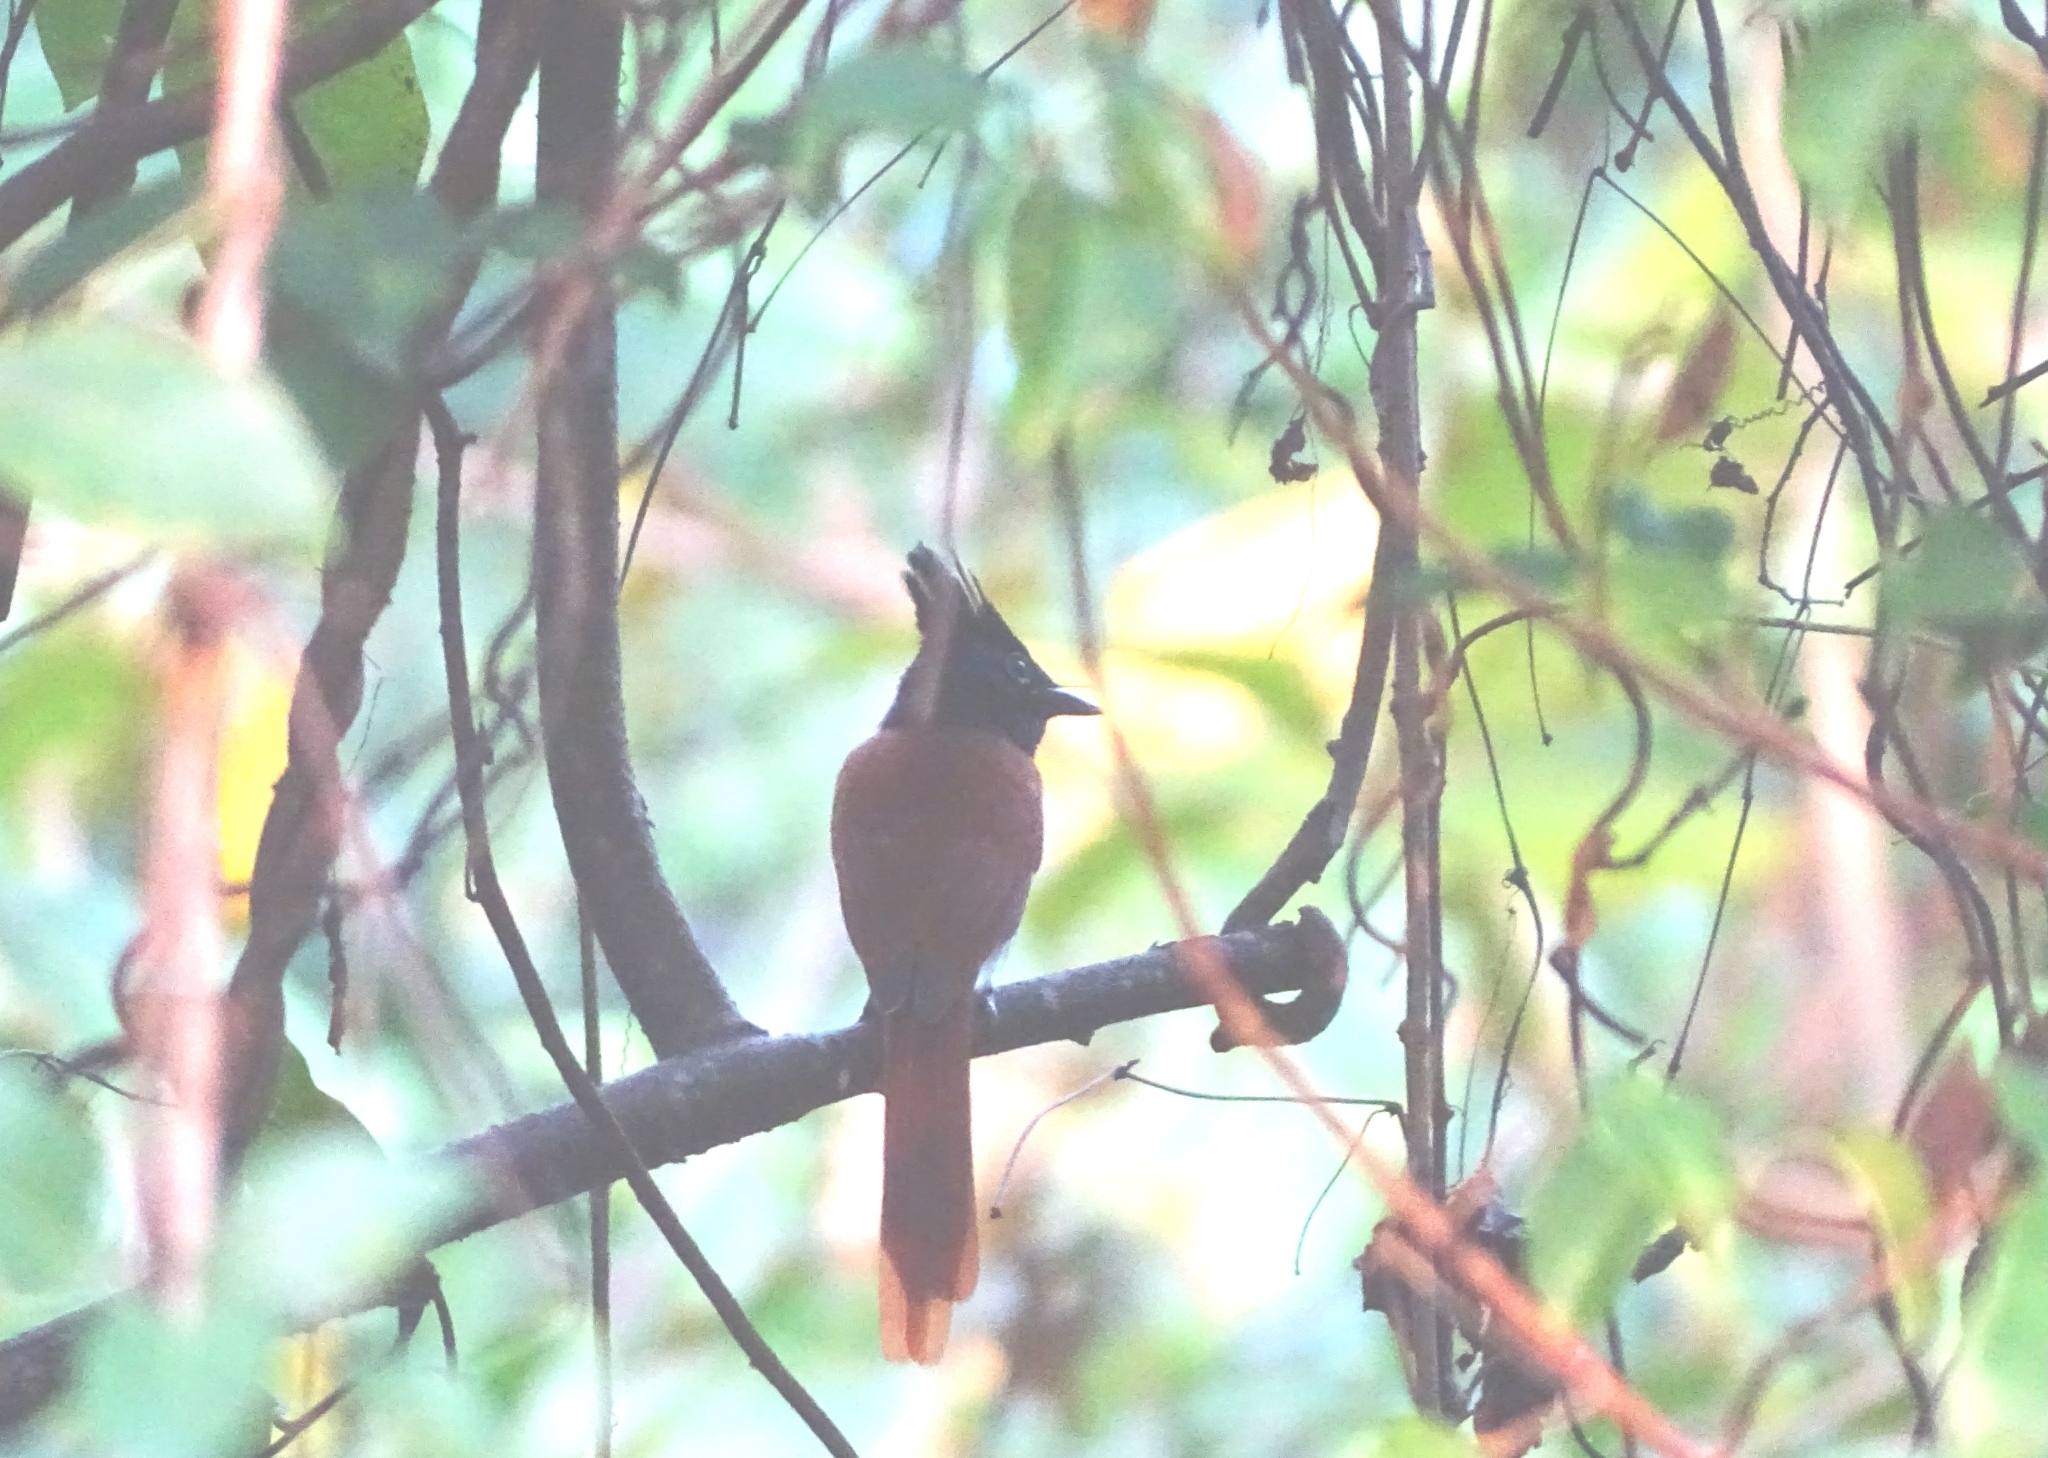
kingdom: Animalia
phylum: Chordata
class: Aves
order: Passeriformes
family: Monarchidae
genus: Terpsiphone
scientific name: Terpsiphone paradisi
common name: Indian paradise flycatcher
